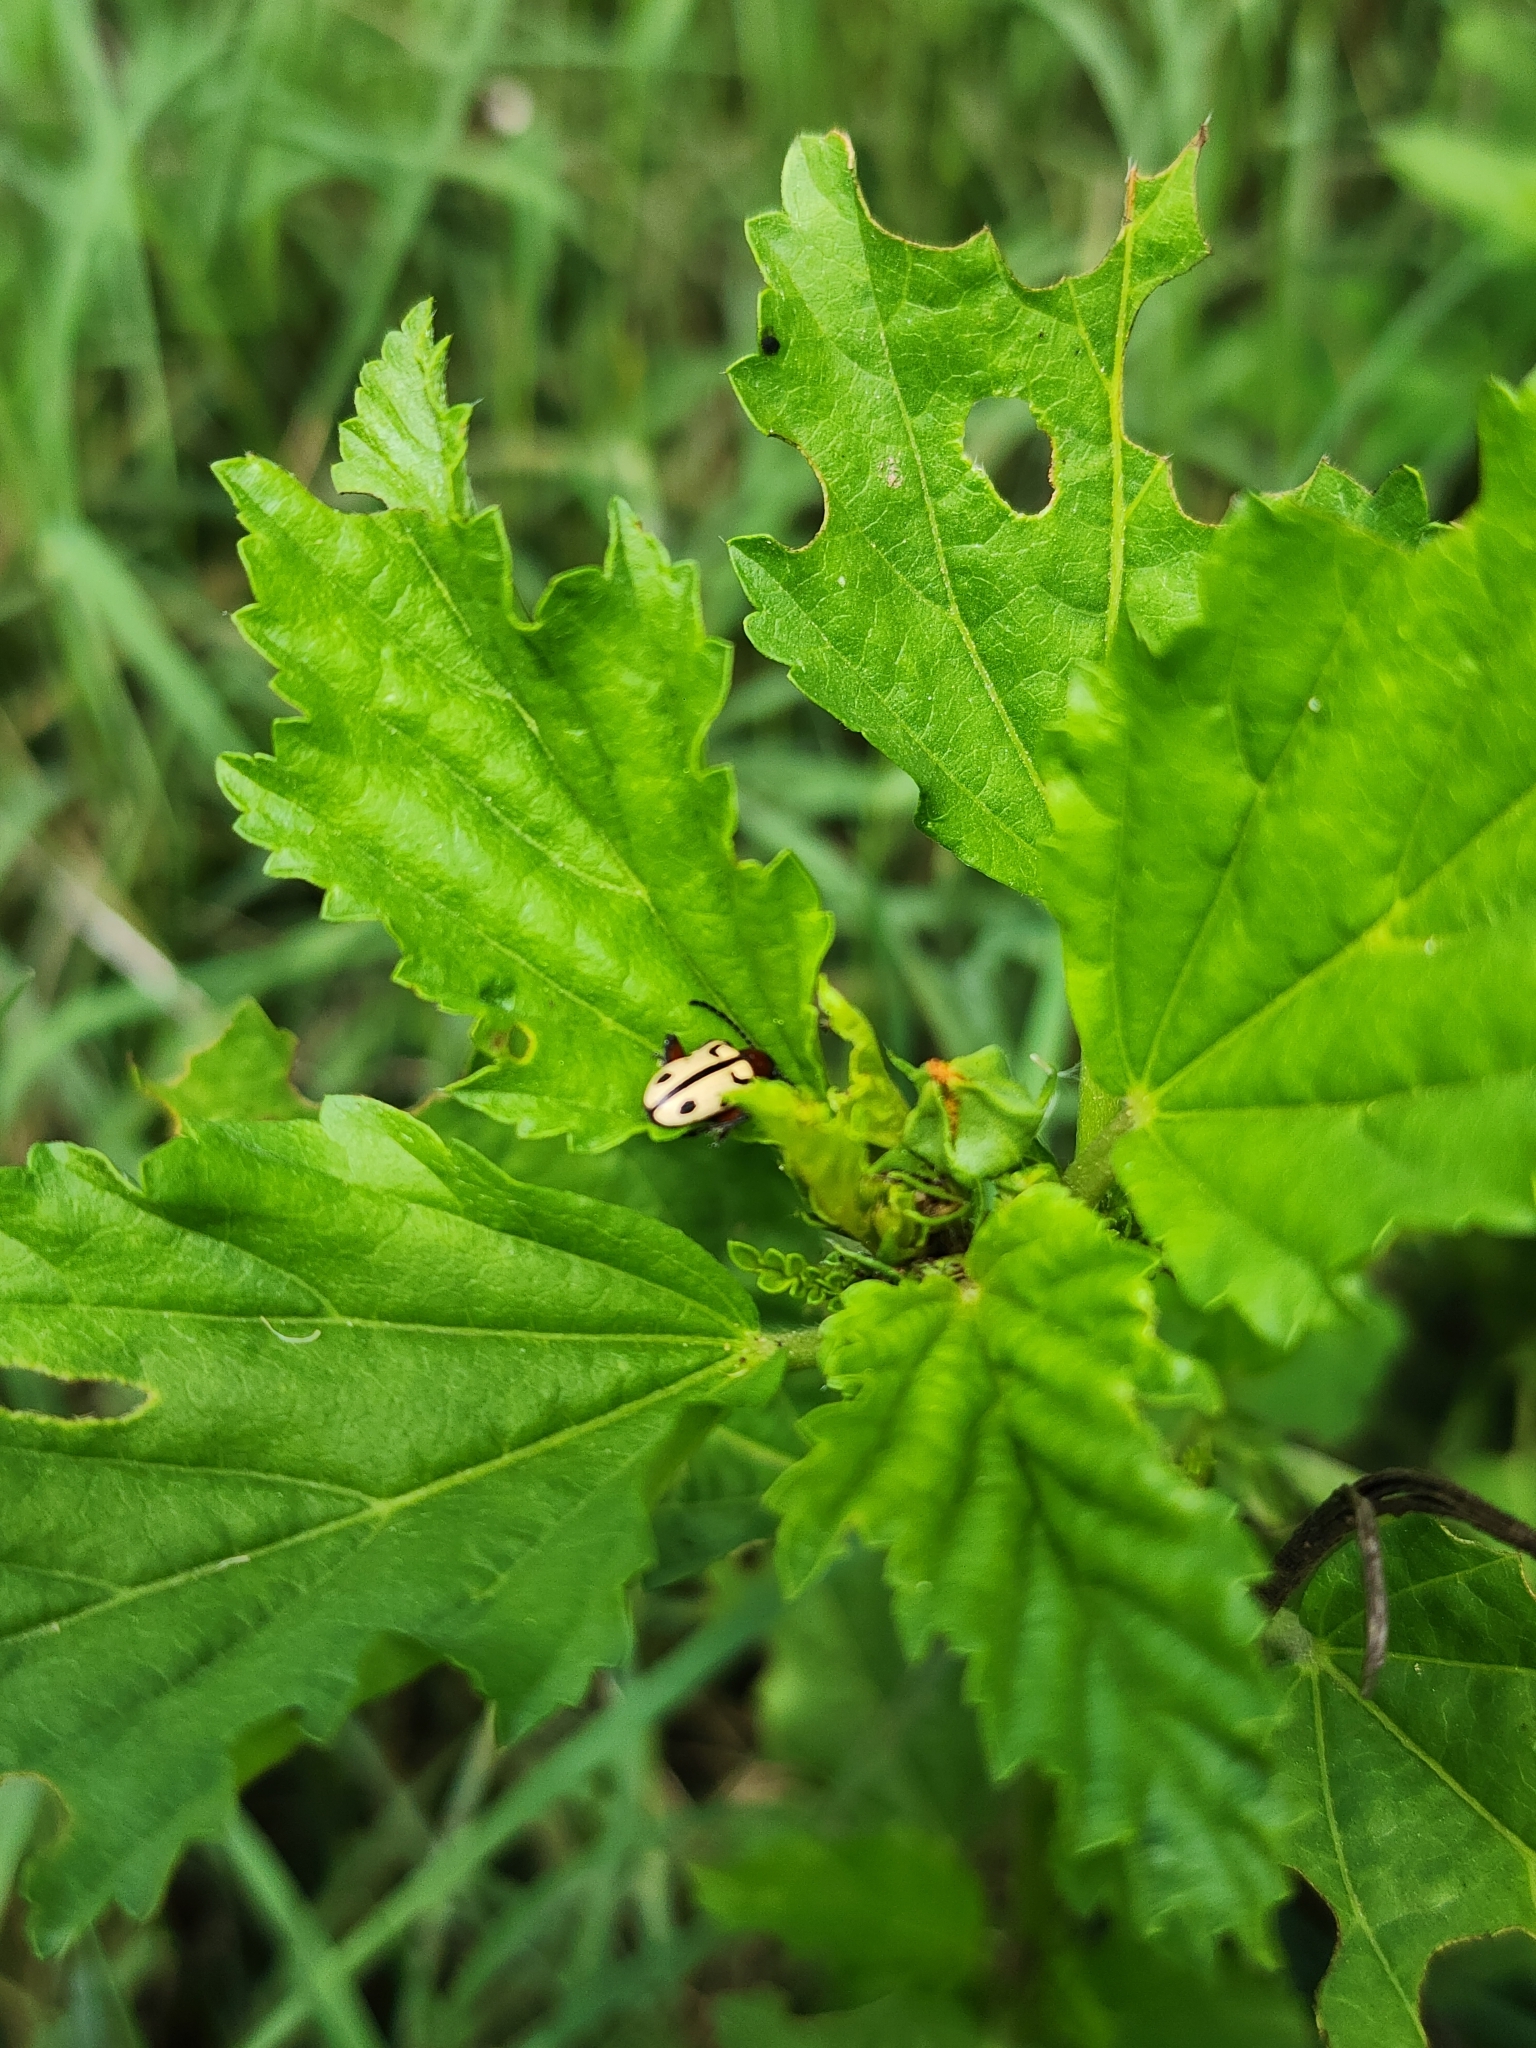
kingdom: Animalia
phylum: Arthropoda
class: Insecta
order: Coleoptera
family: Chrysomelidae
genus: Atalasis
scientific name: Atalasis
